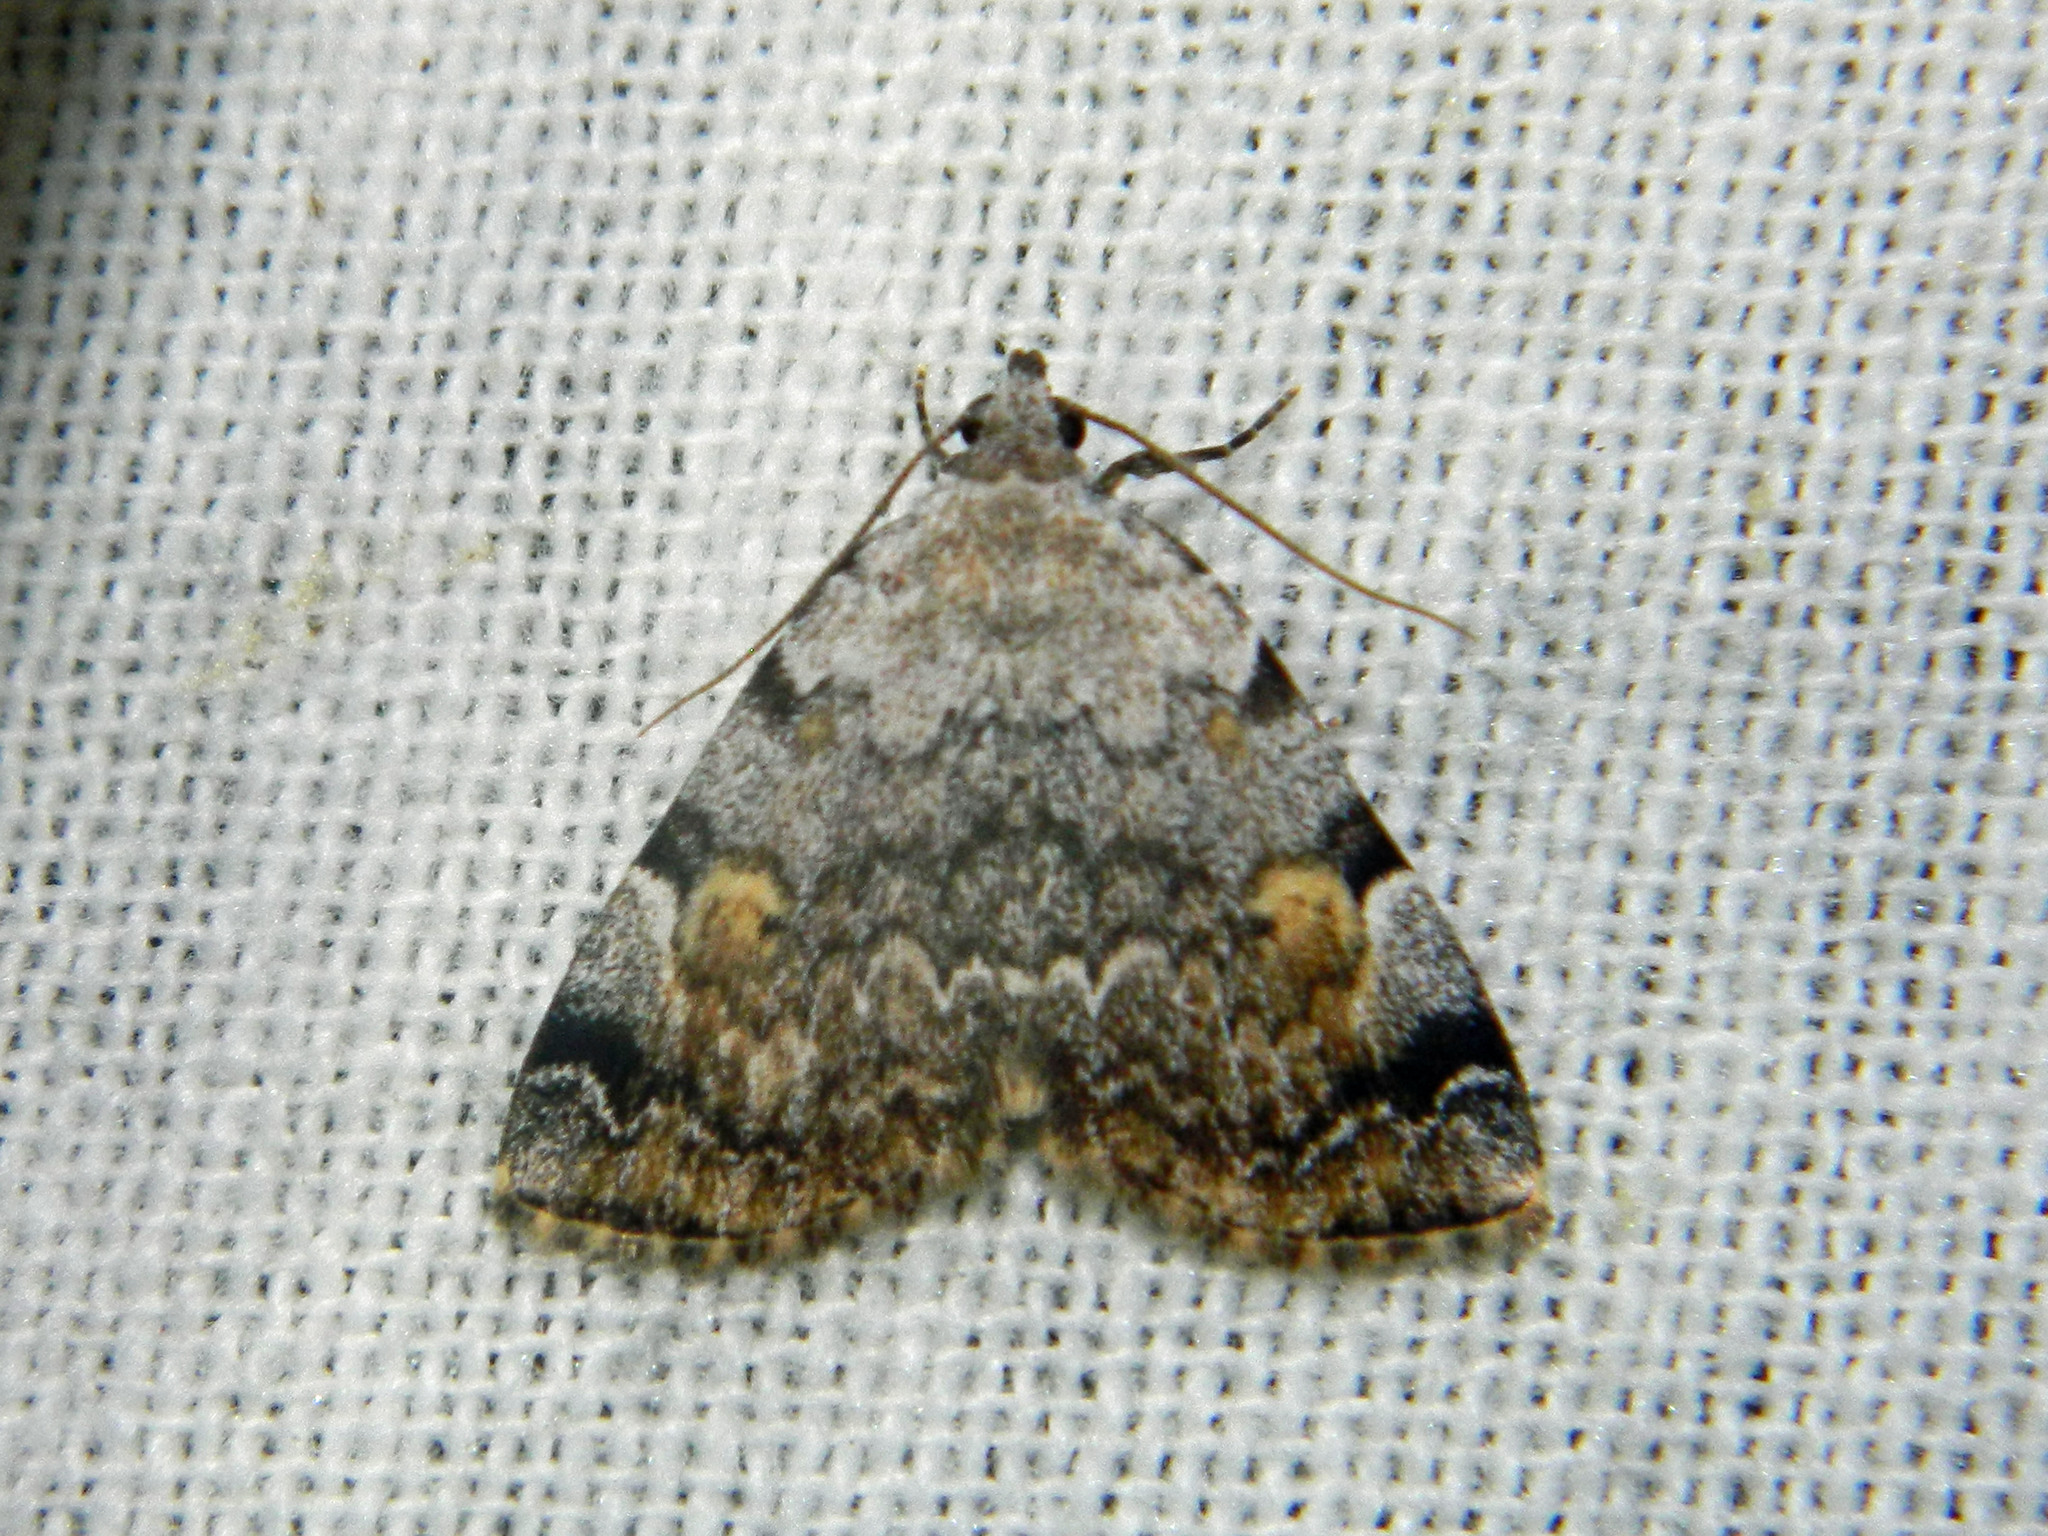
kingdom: Animalia
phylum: Arthropoda
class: Insecta
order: Lepidoptera
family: Erebidae
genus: Idia
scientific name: Idia americalis
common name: American idia moth
